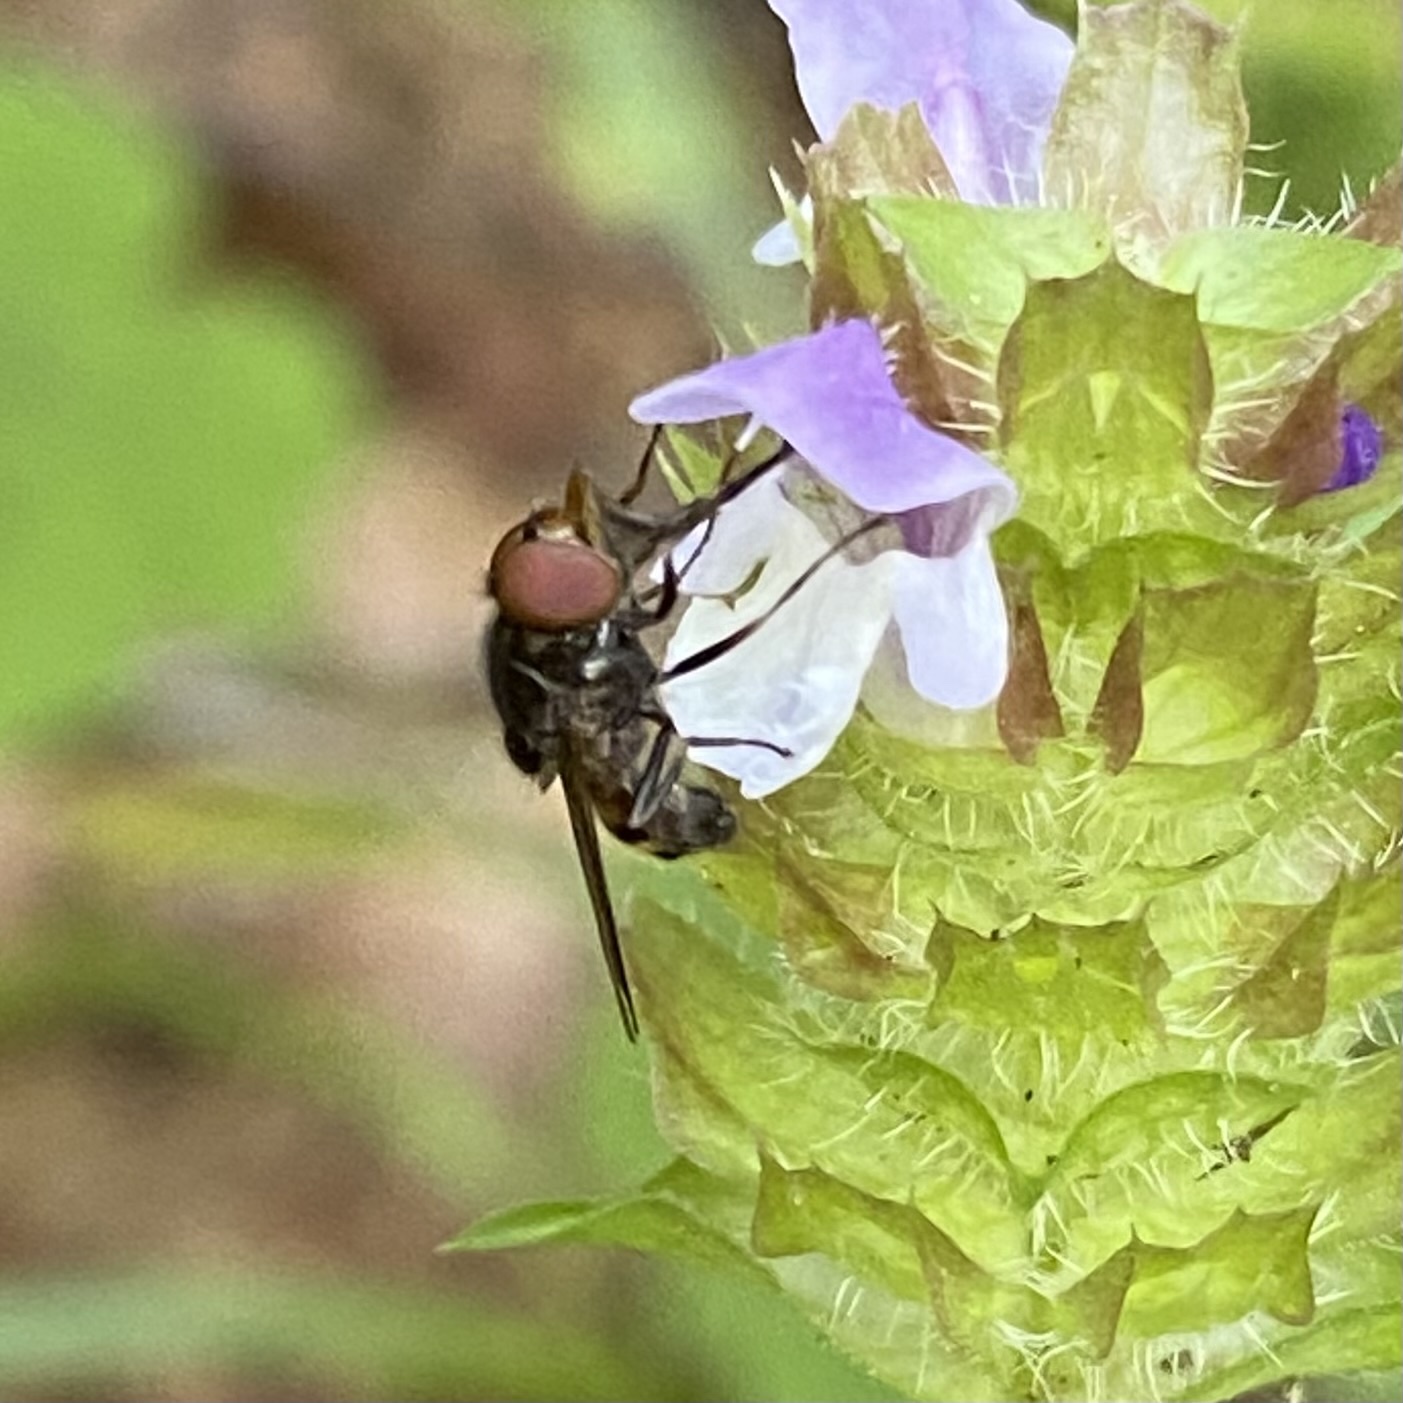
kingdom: Animalia
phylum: Arthropoda
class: Insecta
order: Diptera
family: Syrphidae
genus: Rhingia
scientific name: Rhingia nasica
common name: American snout fly
